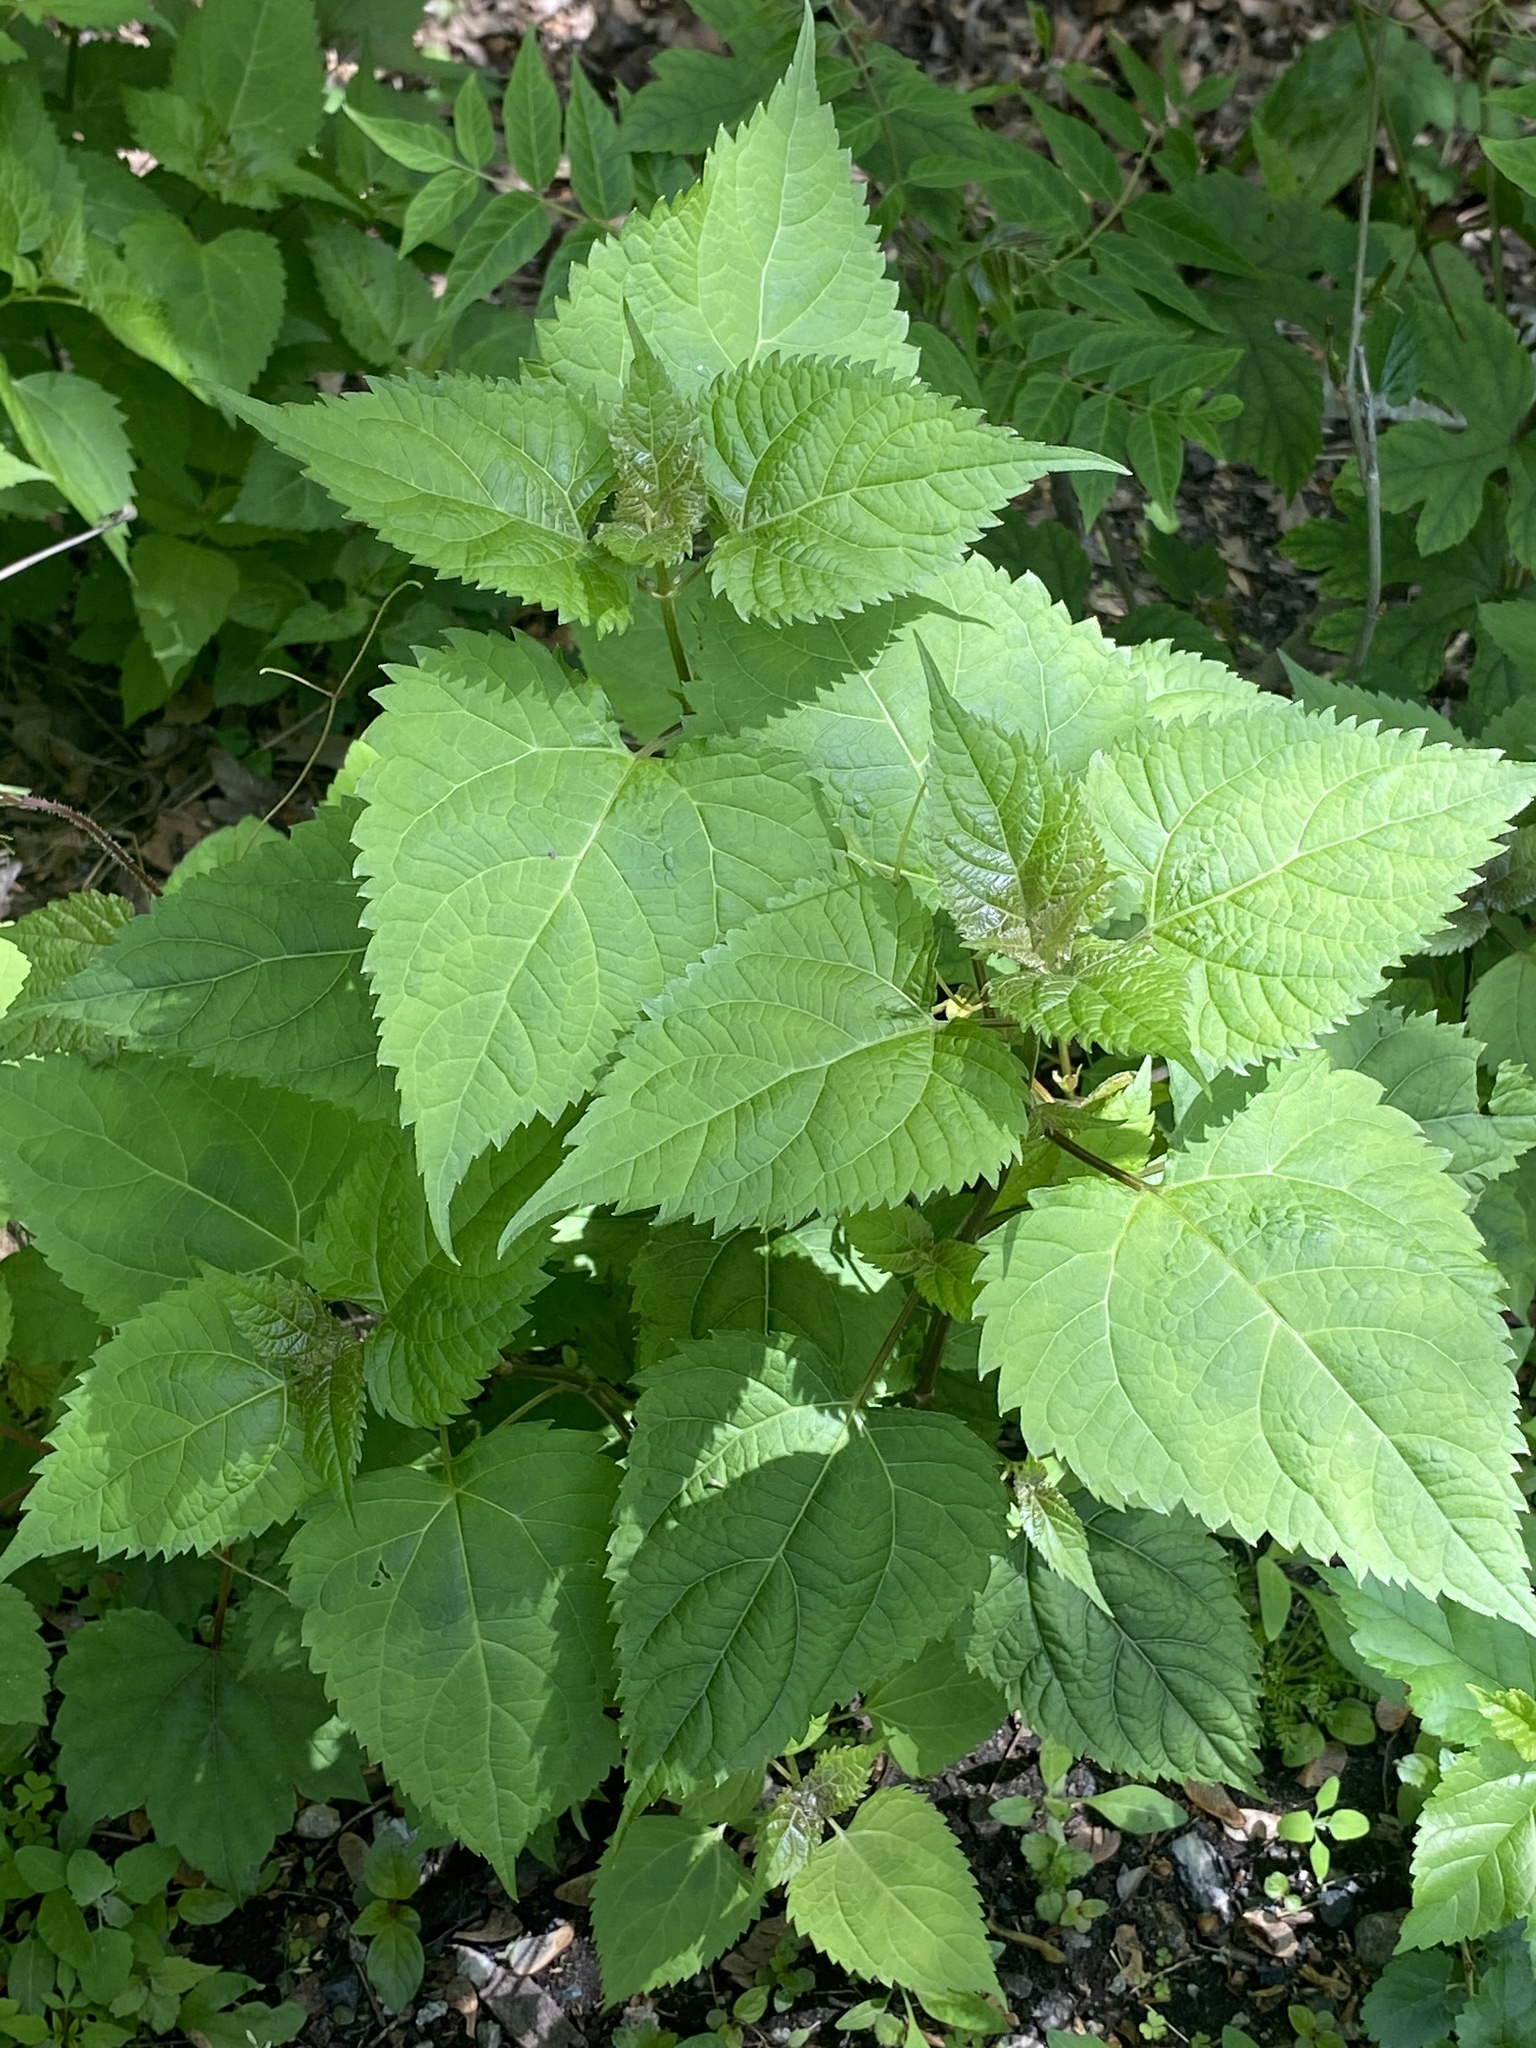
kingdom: Plantae
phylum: Tracheophyta
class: Magnoliopsida
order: Asterales
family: Asteraceae
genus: Ageratina
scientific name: Ageratina altissima
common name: White snakeroot
